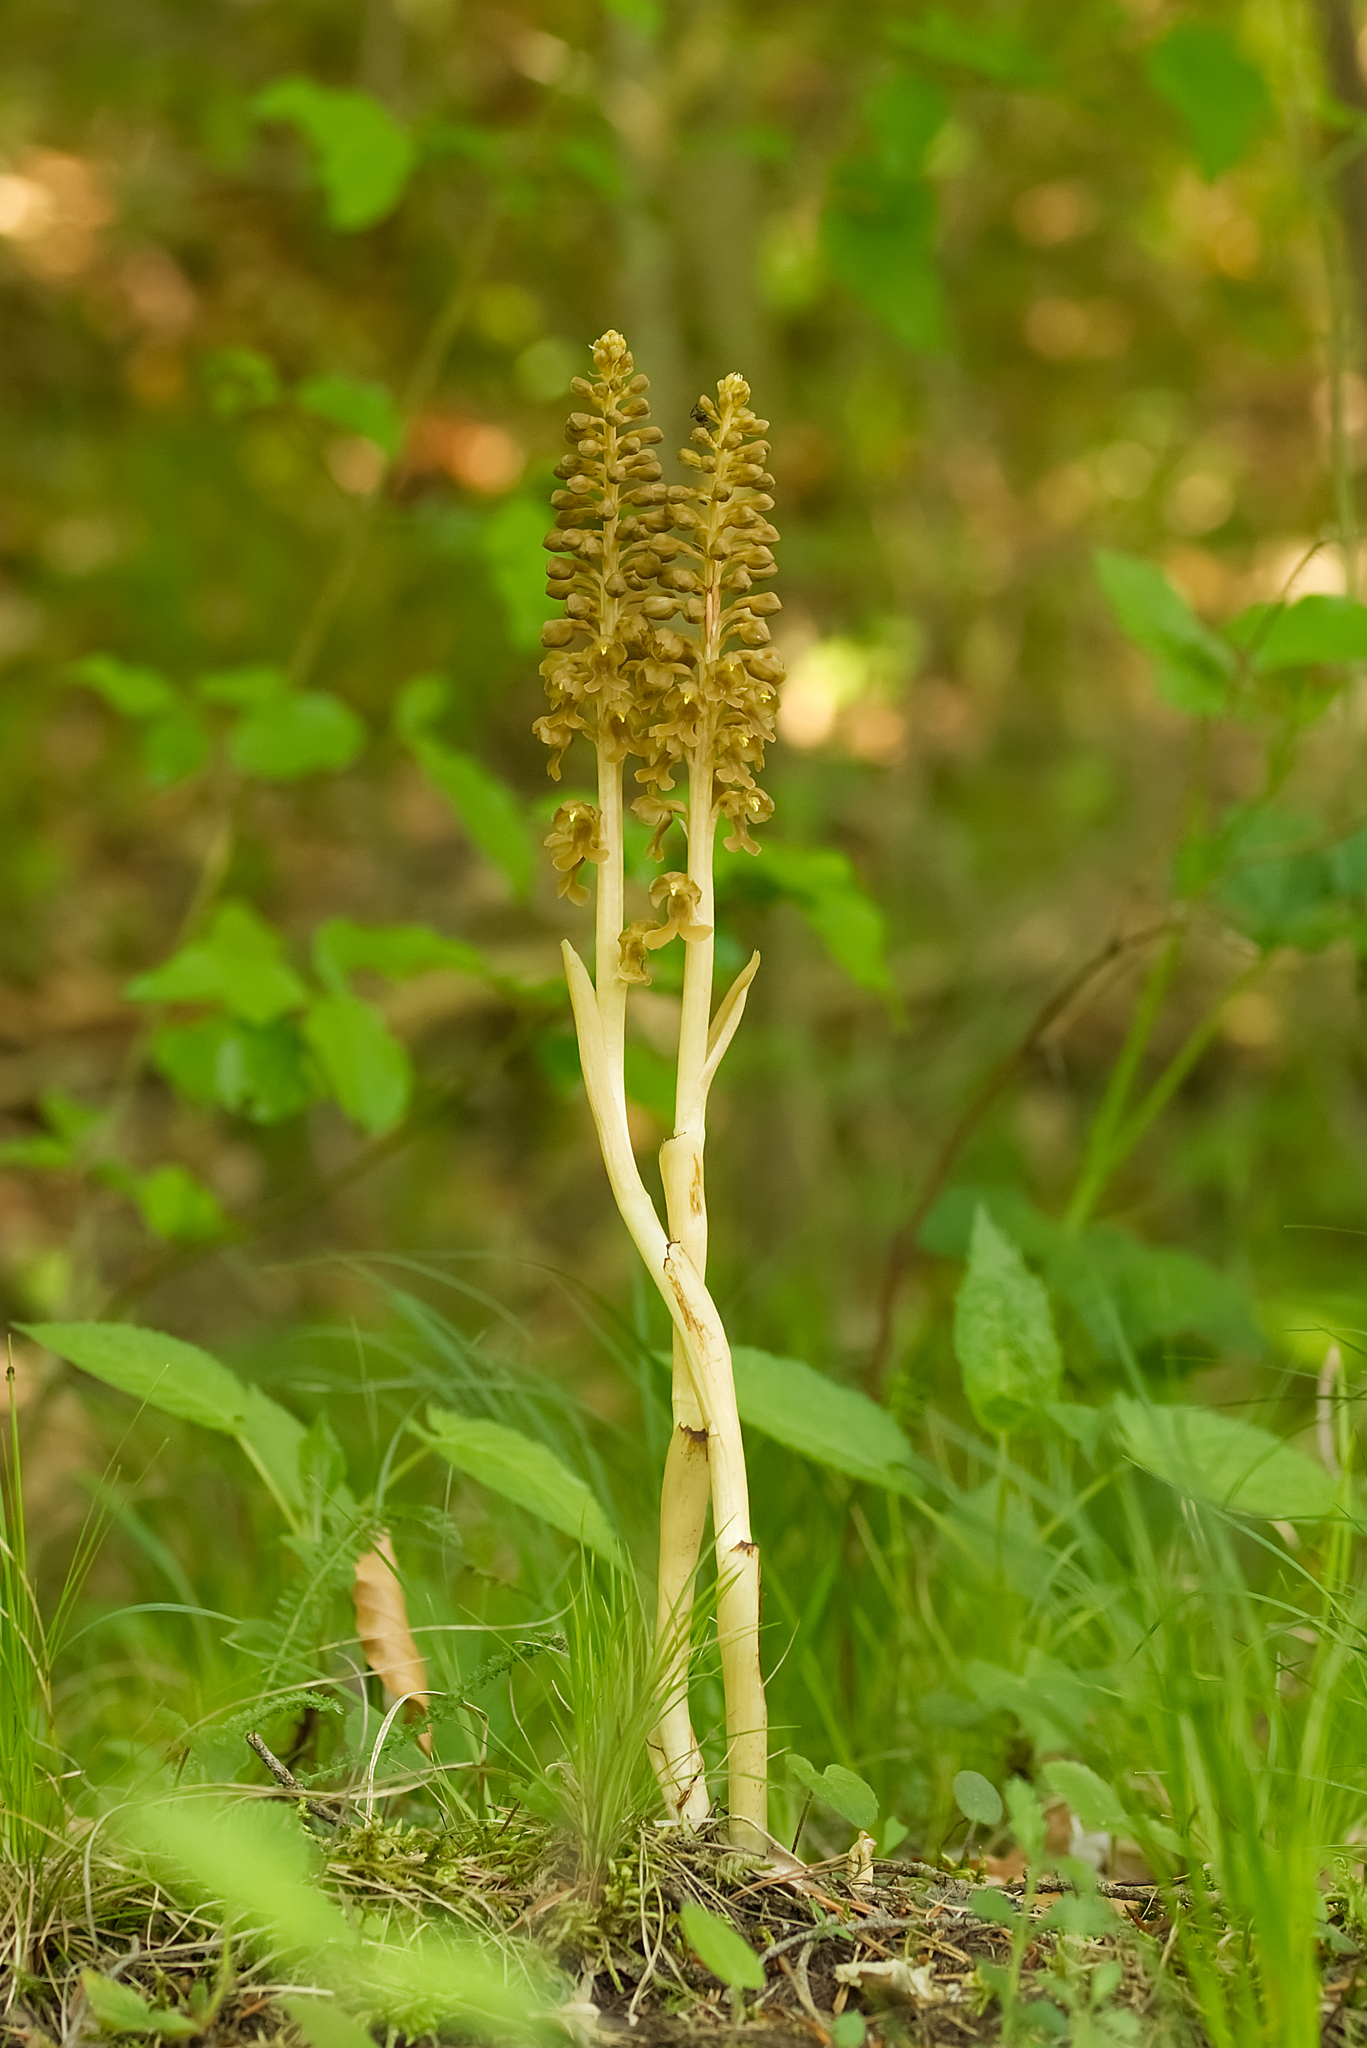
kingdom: Plantae
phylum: Tracheophyta
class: Liliopsida
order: Asparagales
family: Orchidaceae
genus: Neottia
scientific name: Neottia nidus-avis
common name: Bird's-nest orchid
